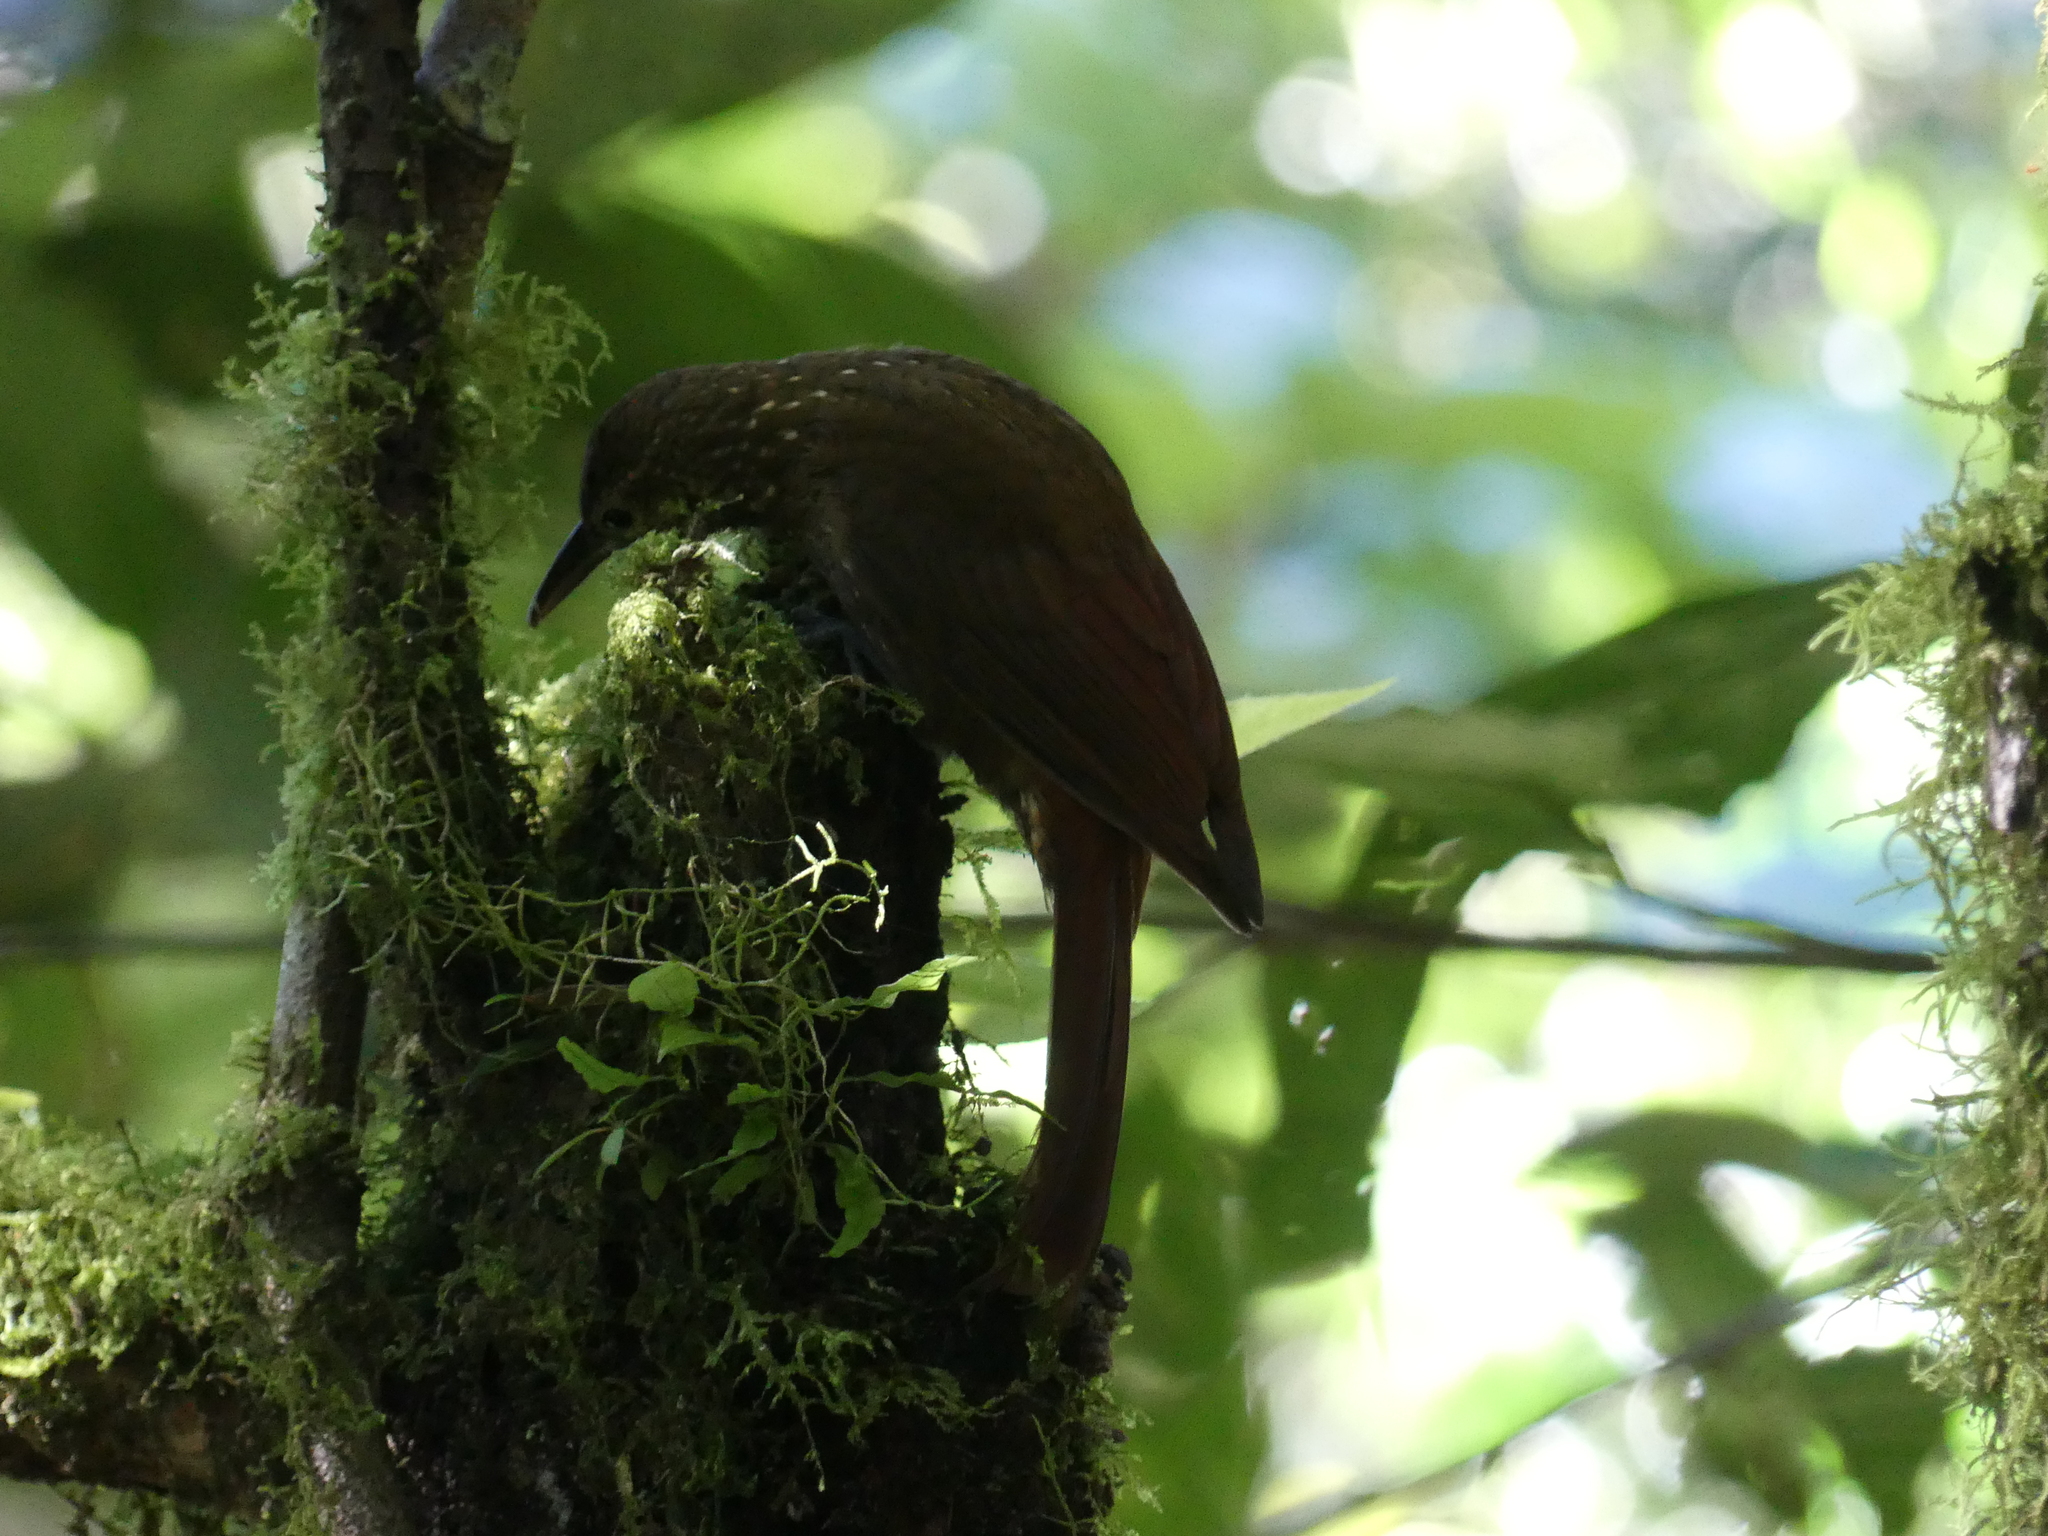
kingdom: Animalia
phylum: Chordata
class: Aves
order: Passeriformes
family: Furnariidae
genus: Xiphorhynchus
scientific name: Xiphorhynchus erythropygius
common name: Spotted woodcreeper
